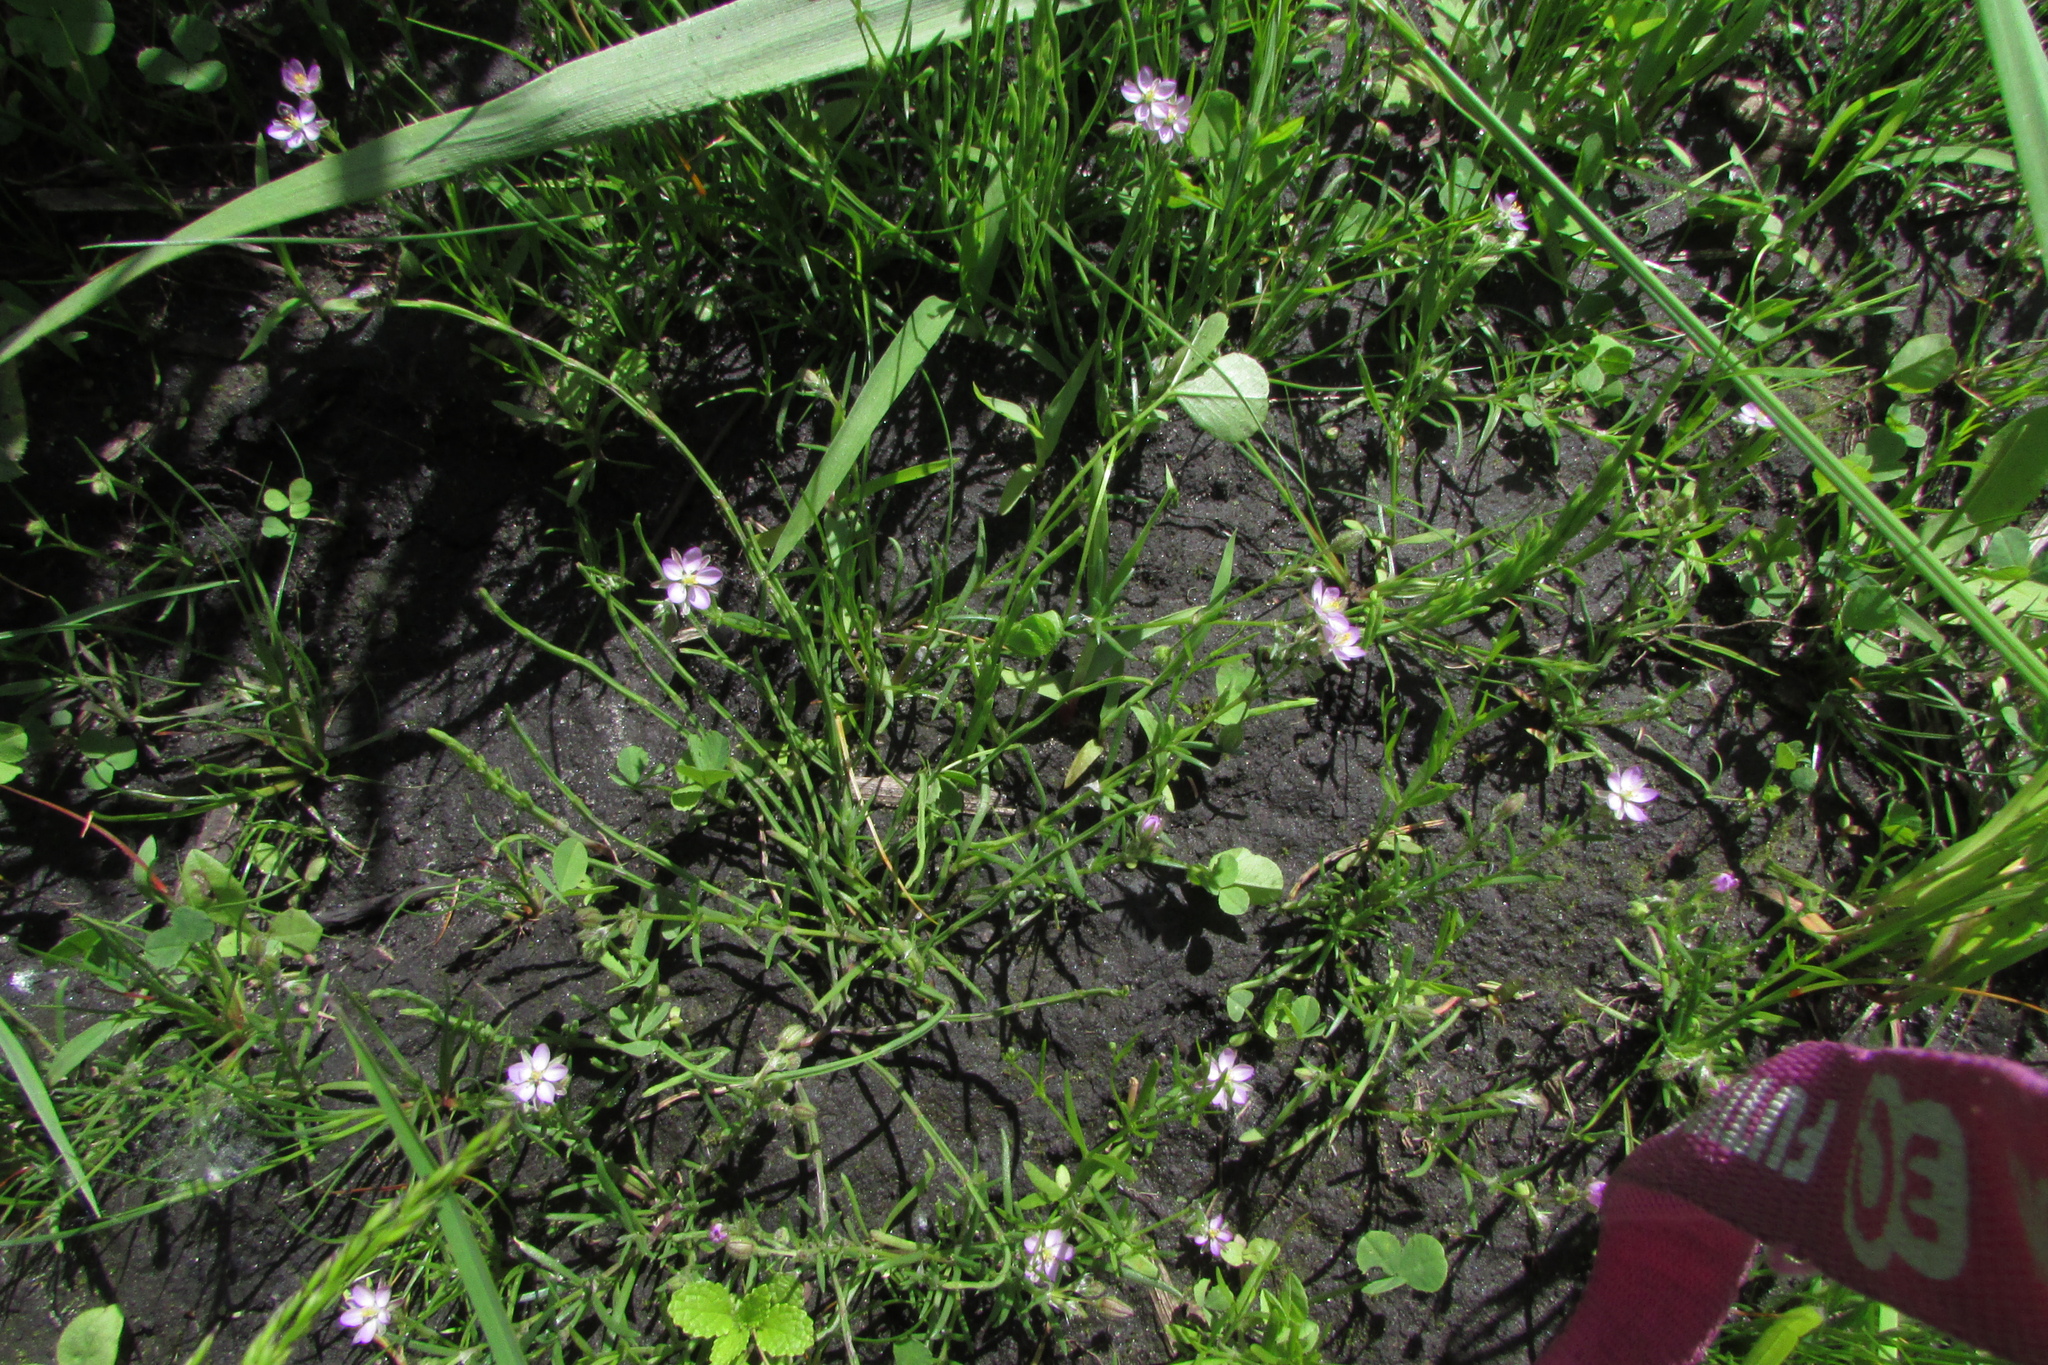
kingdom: Plantae
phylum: Tracheophyta
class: Magnoliopsida
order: Caryophyllales
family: Caryophyllaceae
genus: Spergularia
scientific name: Spergularia rubra
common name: Red sand-spurrey
